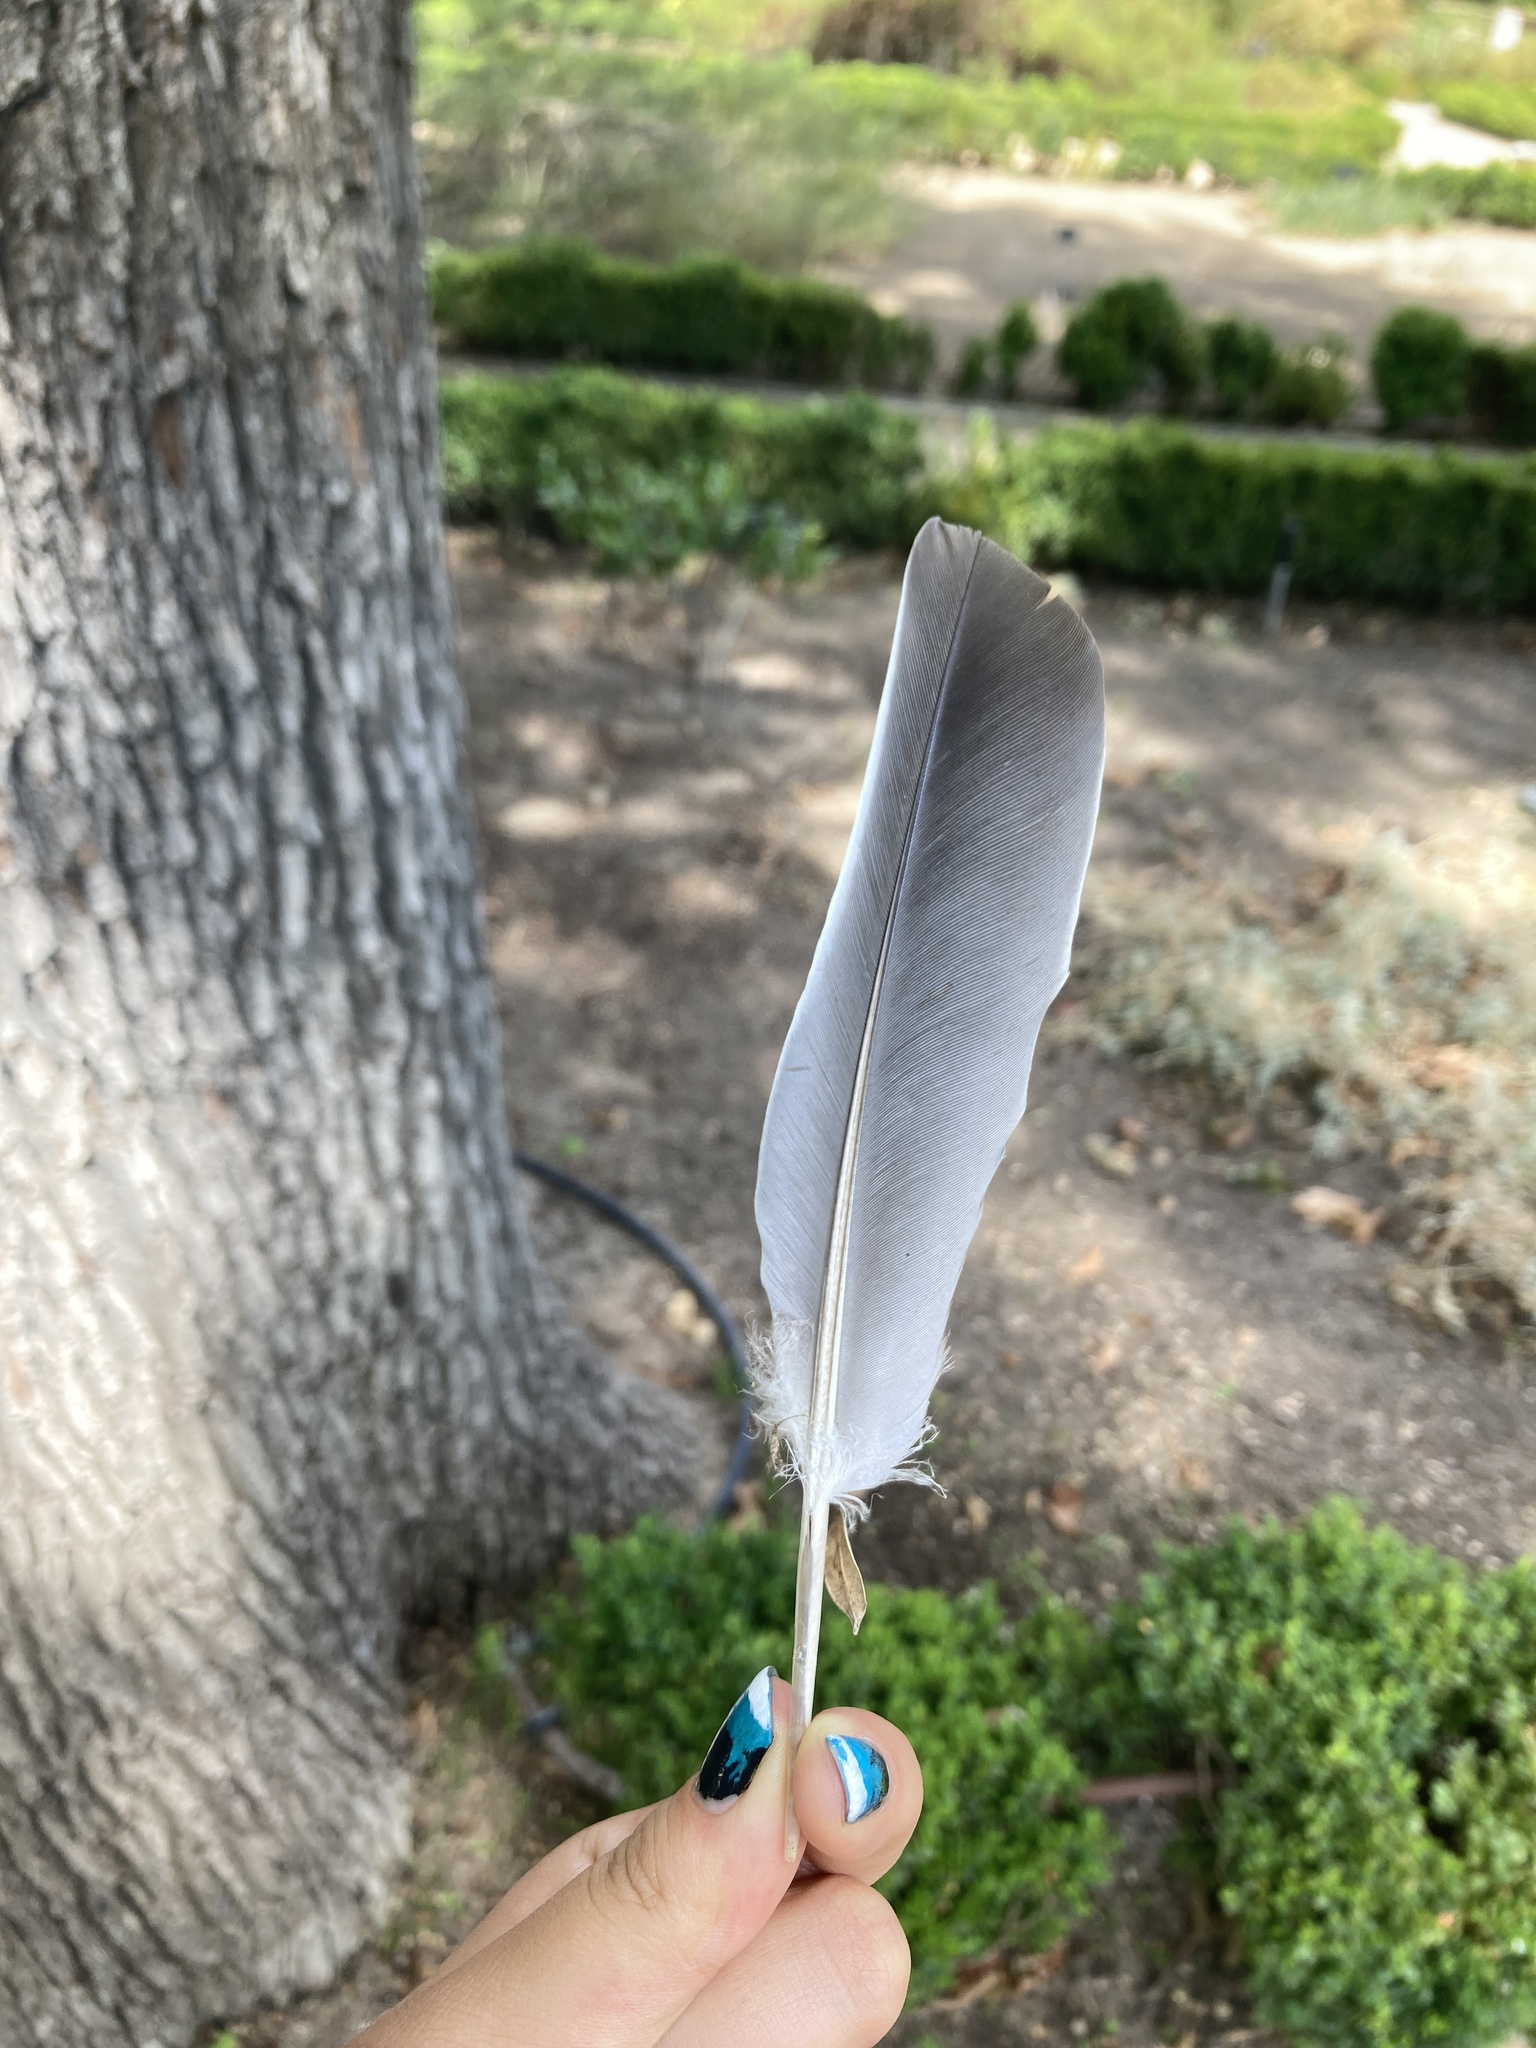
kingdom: Animalia
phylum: Chordata
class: Aves
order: Columbiformes
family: Columbidae
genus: Columba
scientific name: Columba palumbus
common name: Common wood pigeon
